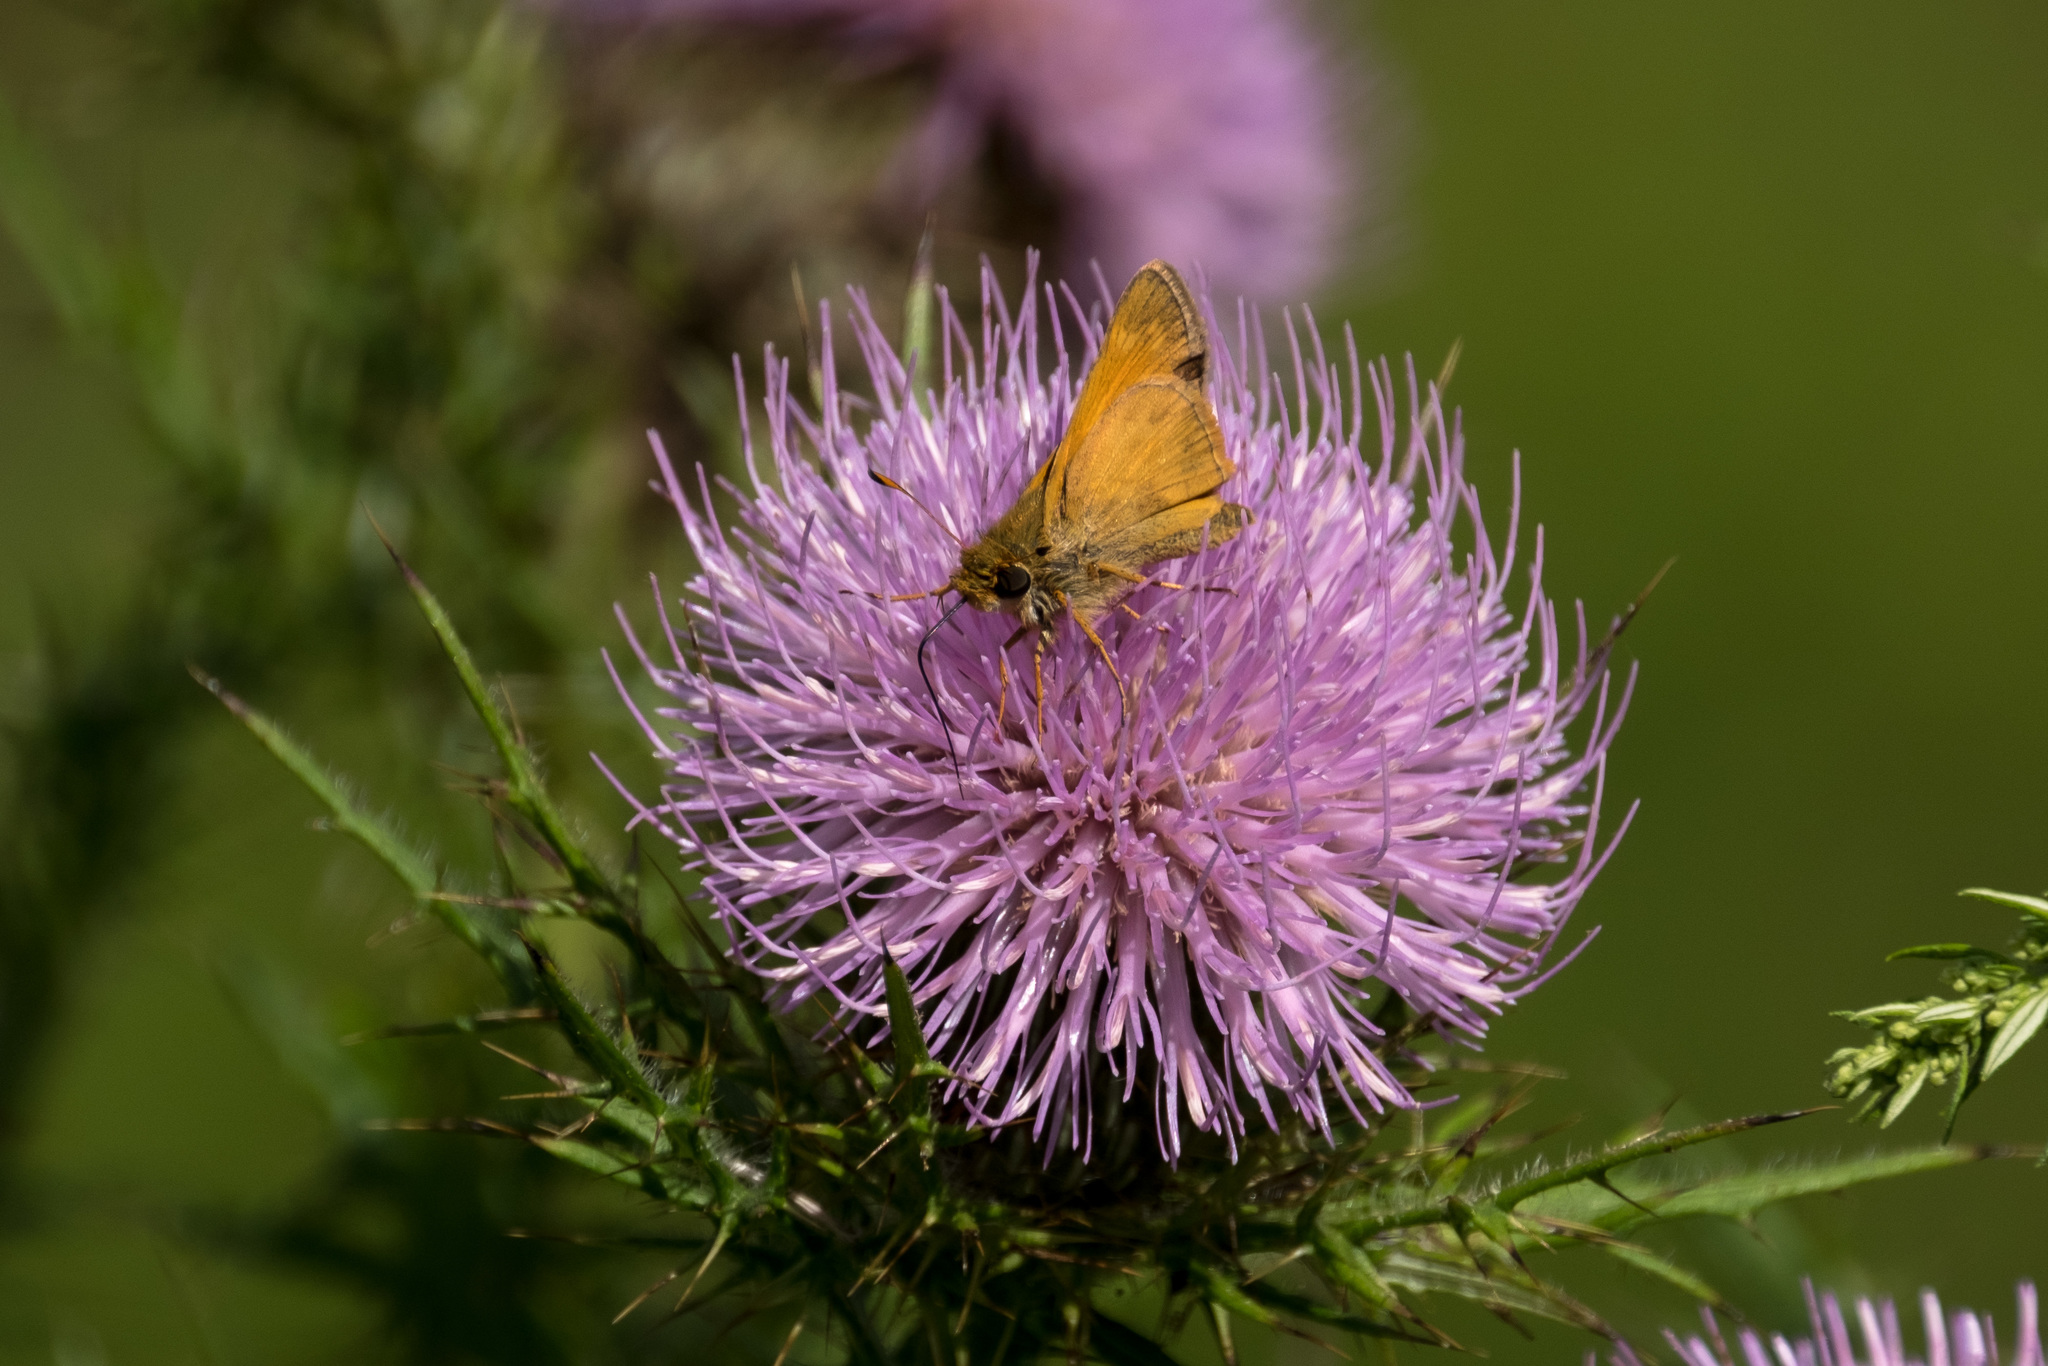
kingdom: Animalia
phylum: Arthropoda
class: Insecta
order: Lepidoptera
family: Hesperiidae
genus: Atalopedes
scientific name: Atalopedes
